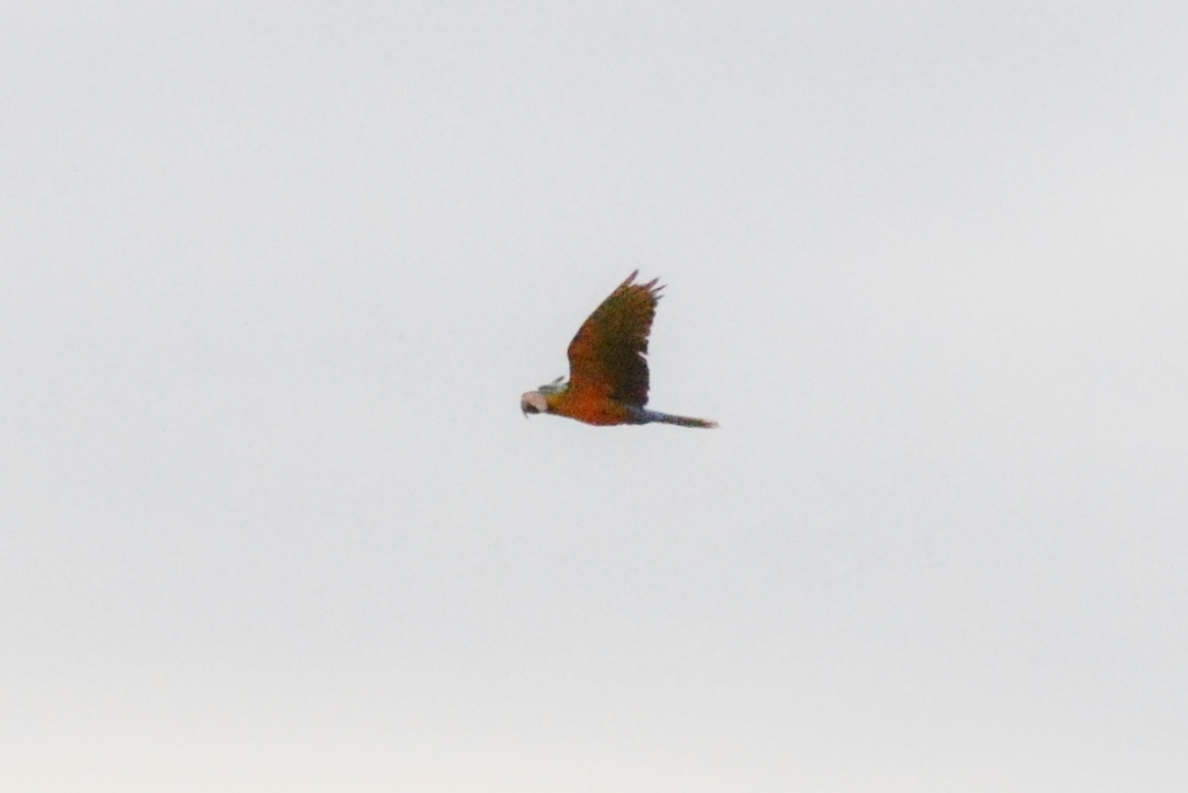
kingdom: Animalia
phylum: Chordata
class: Aves
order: Psittaciformes
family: Psittacidae
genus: Ara
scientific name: Ara ararauna
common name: Blue-and-yellow macaw
